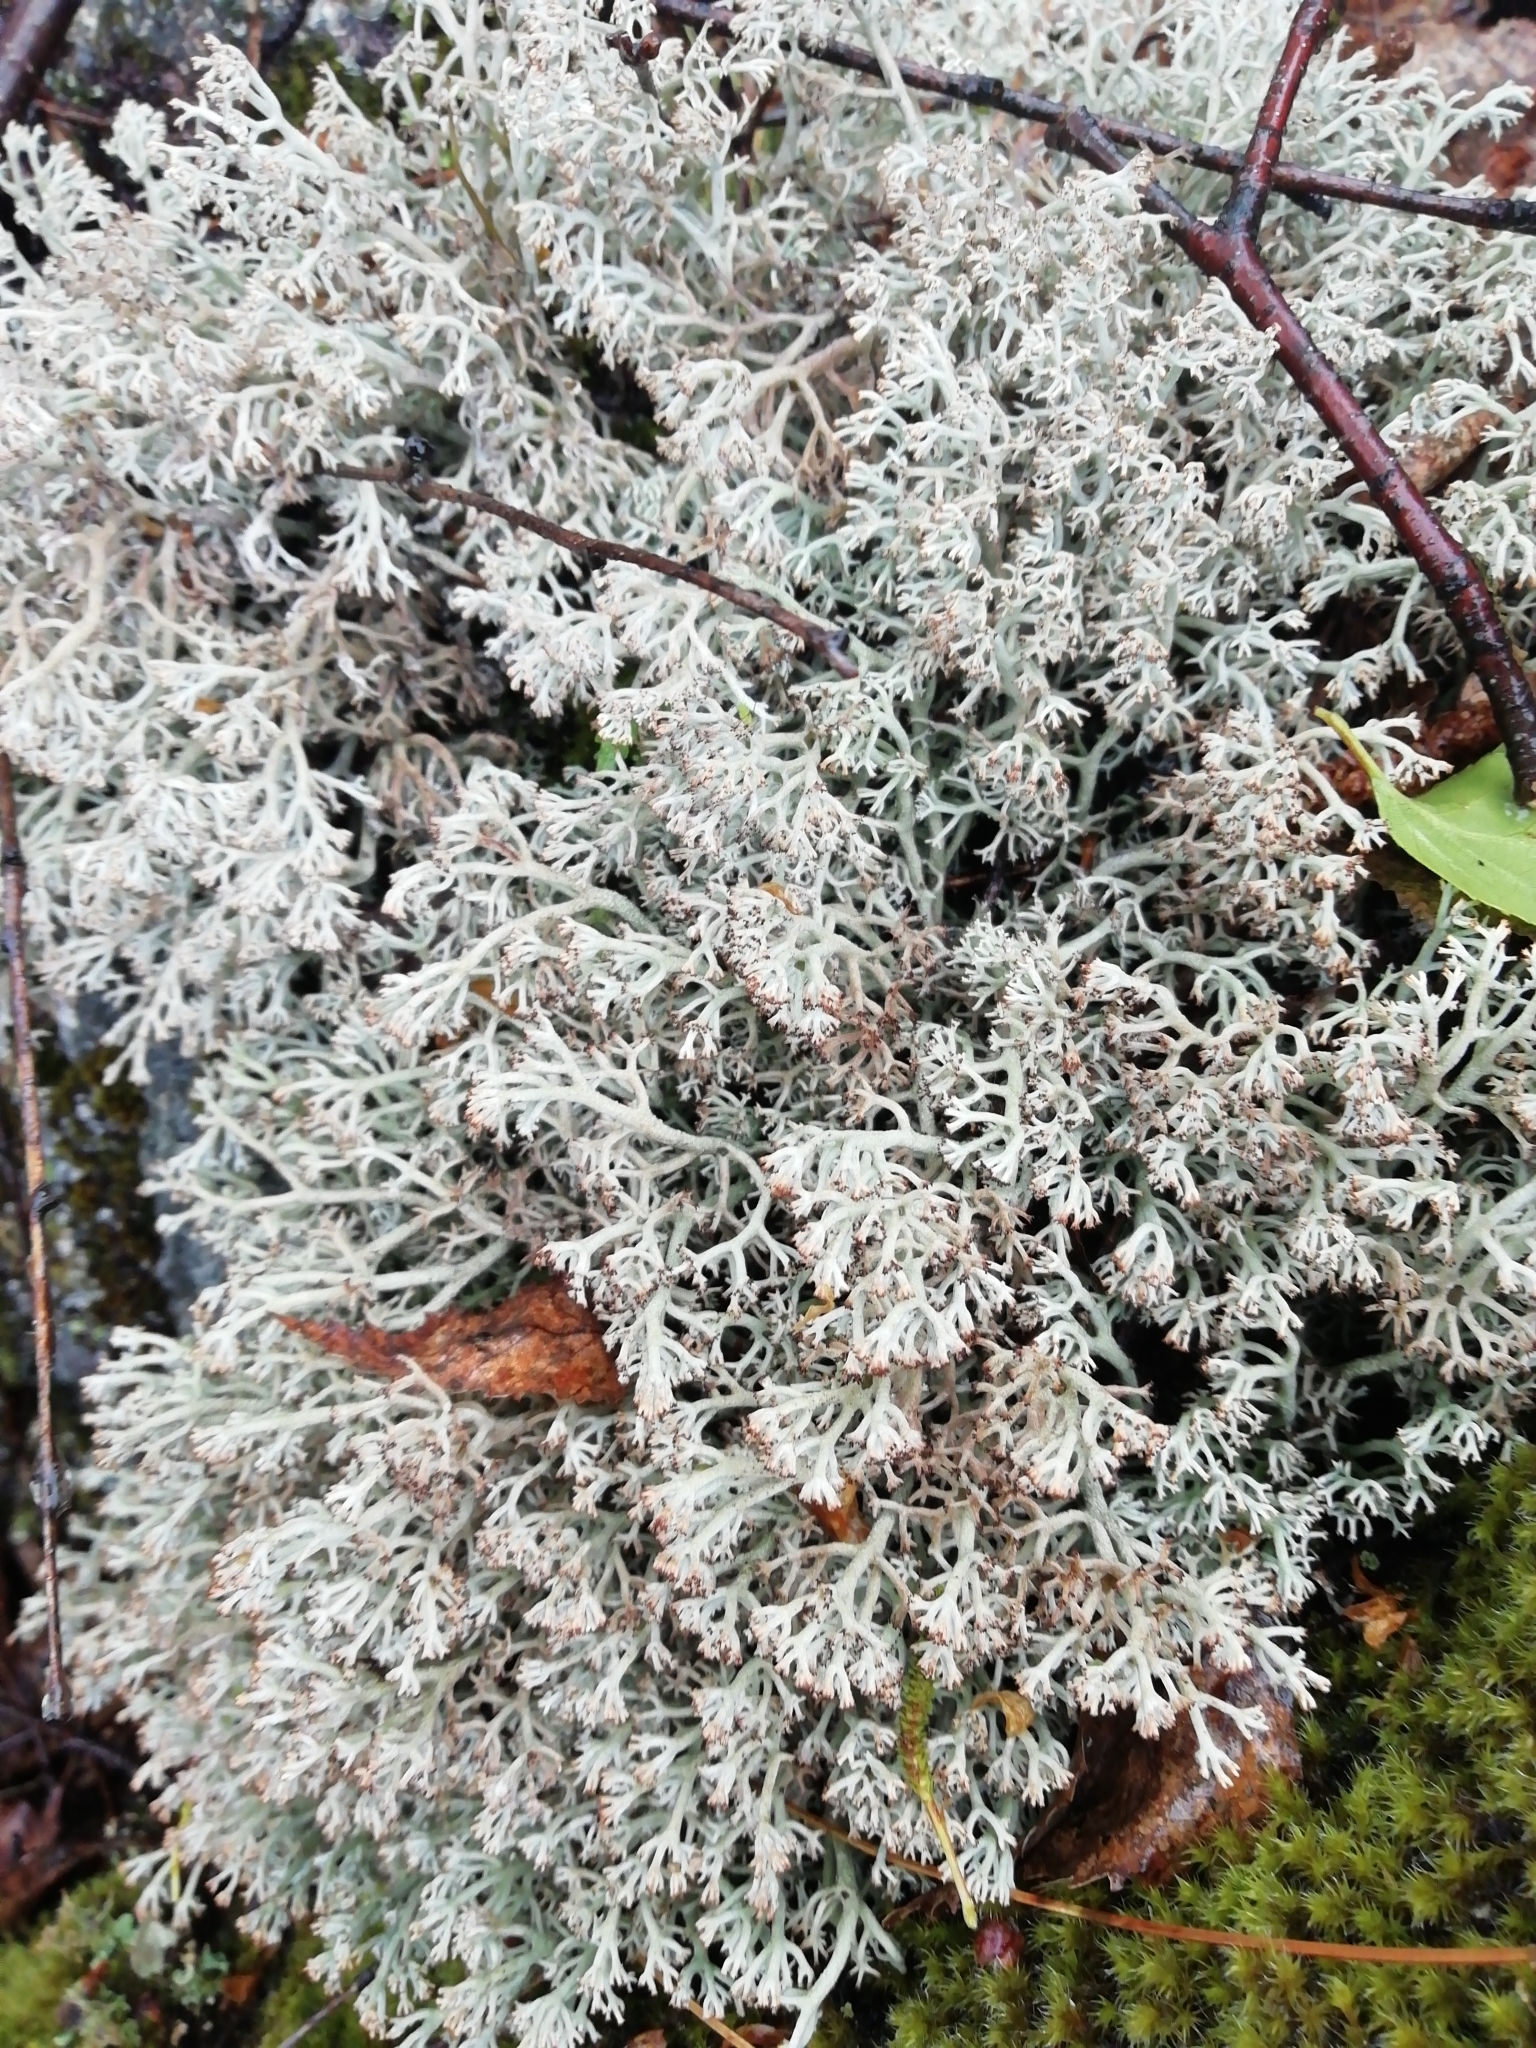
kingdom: Fungi
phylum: Ascomycota
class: Lecanoromycetes
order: Lecanorales
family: Cladoniaceae
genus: Cladonia
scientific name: Cladonia rangiferina
